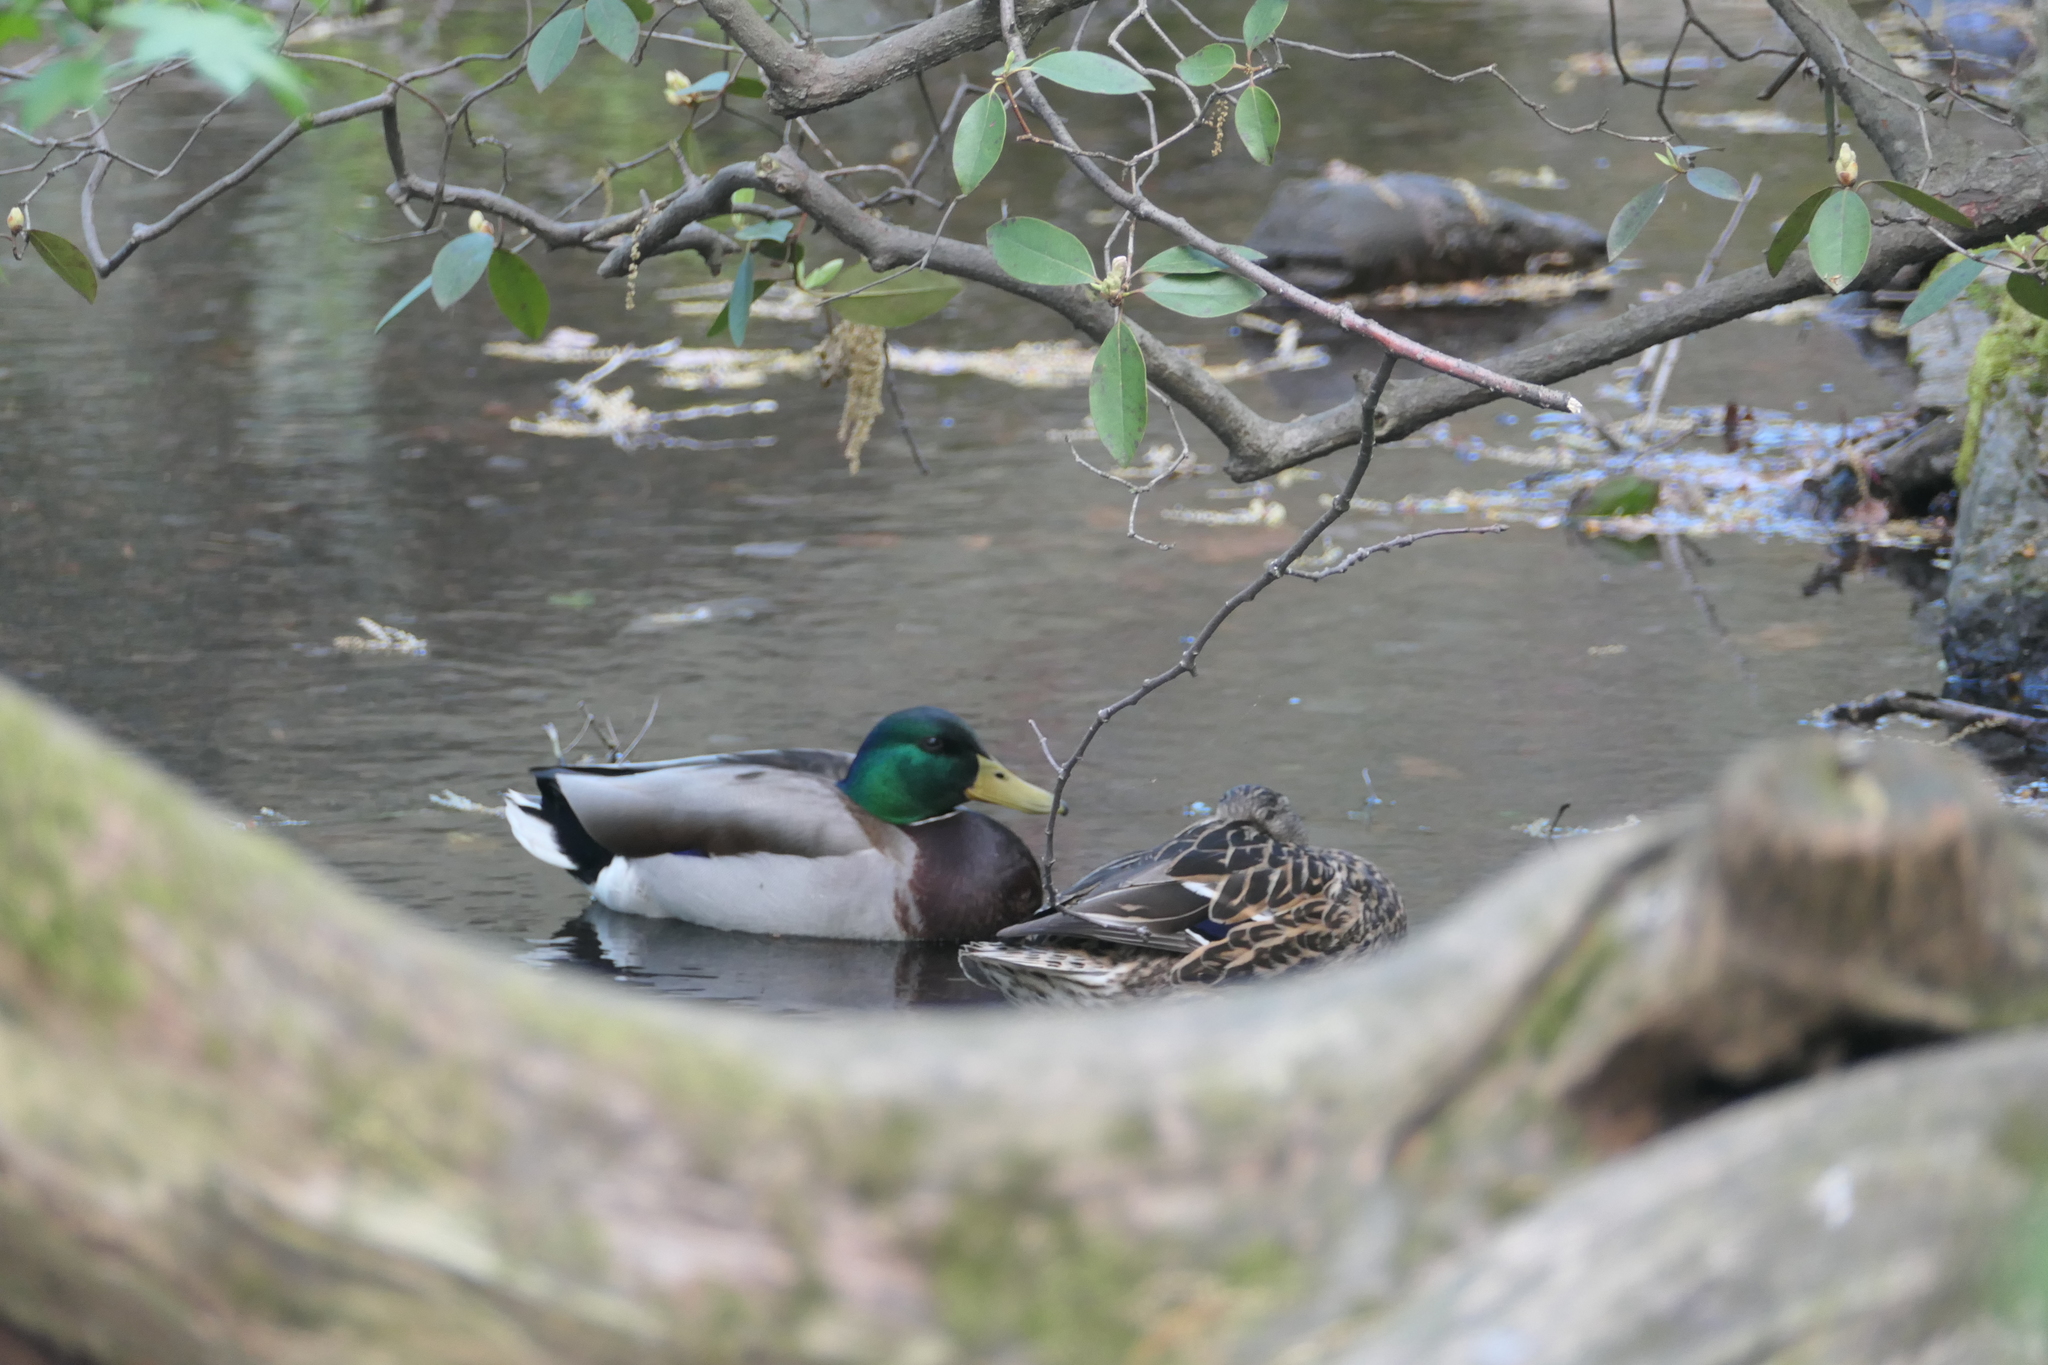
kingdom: Animalia
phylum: Chordata
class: Aves
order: Anseriformes
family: Anatidae
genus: Anas
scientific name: Anas platyrhynchos
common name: Mallard
